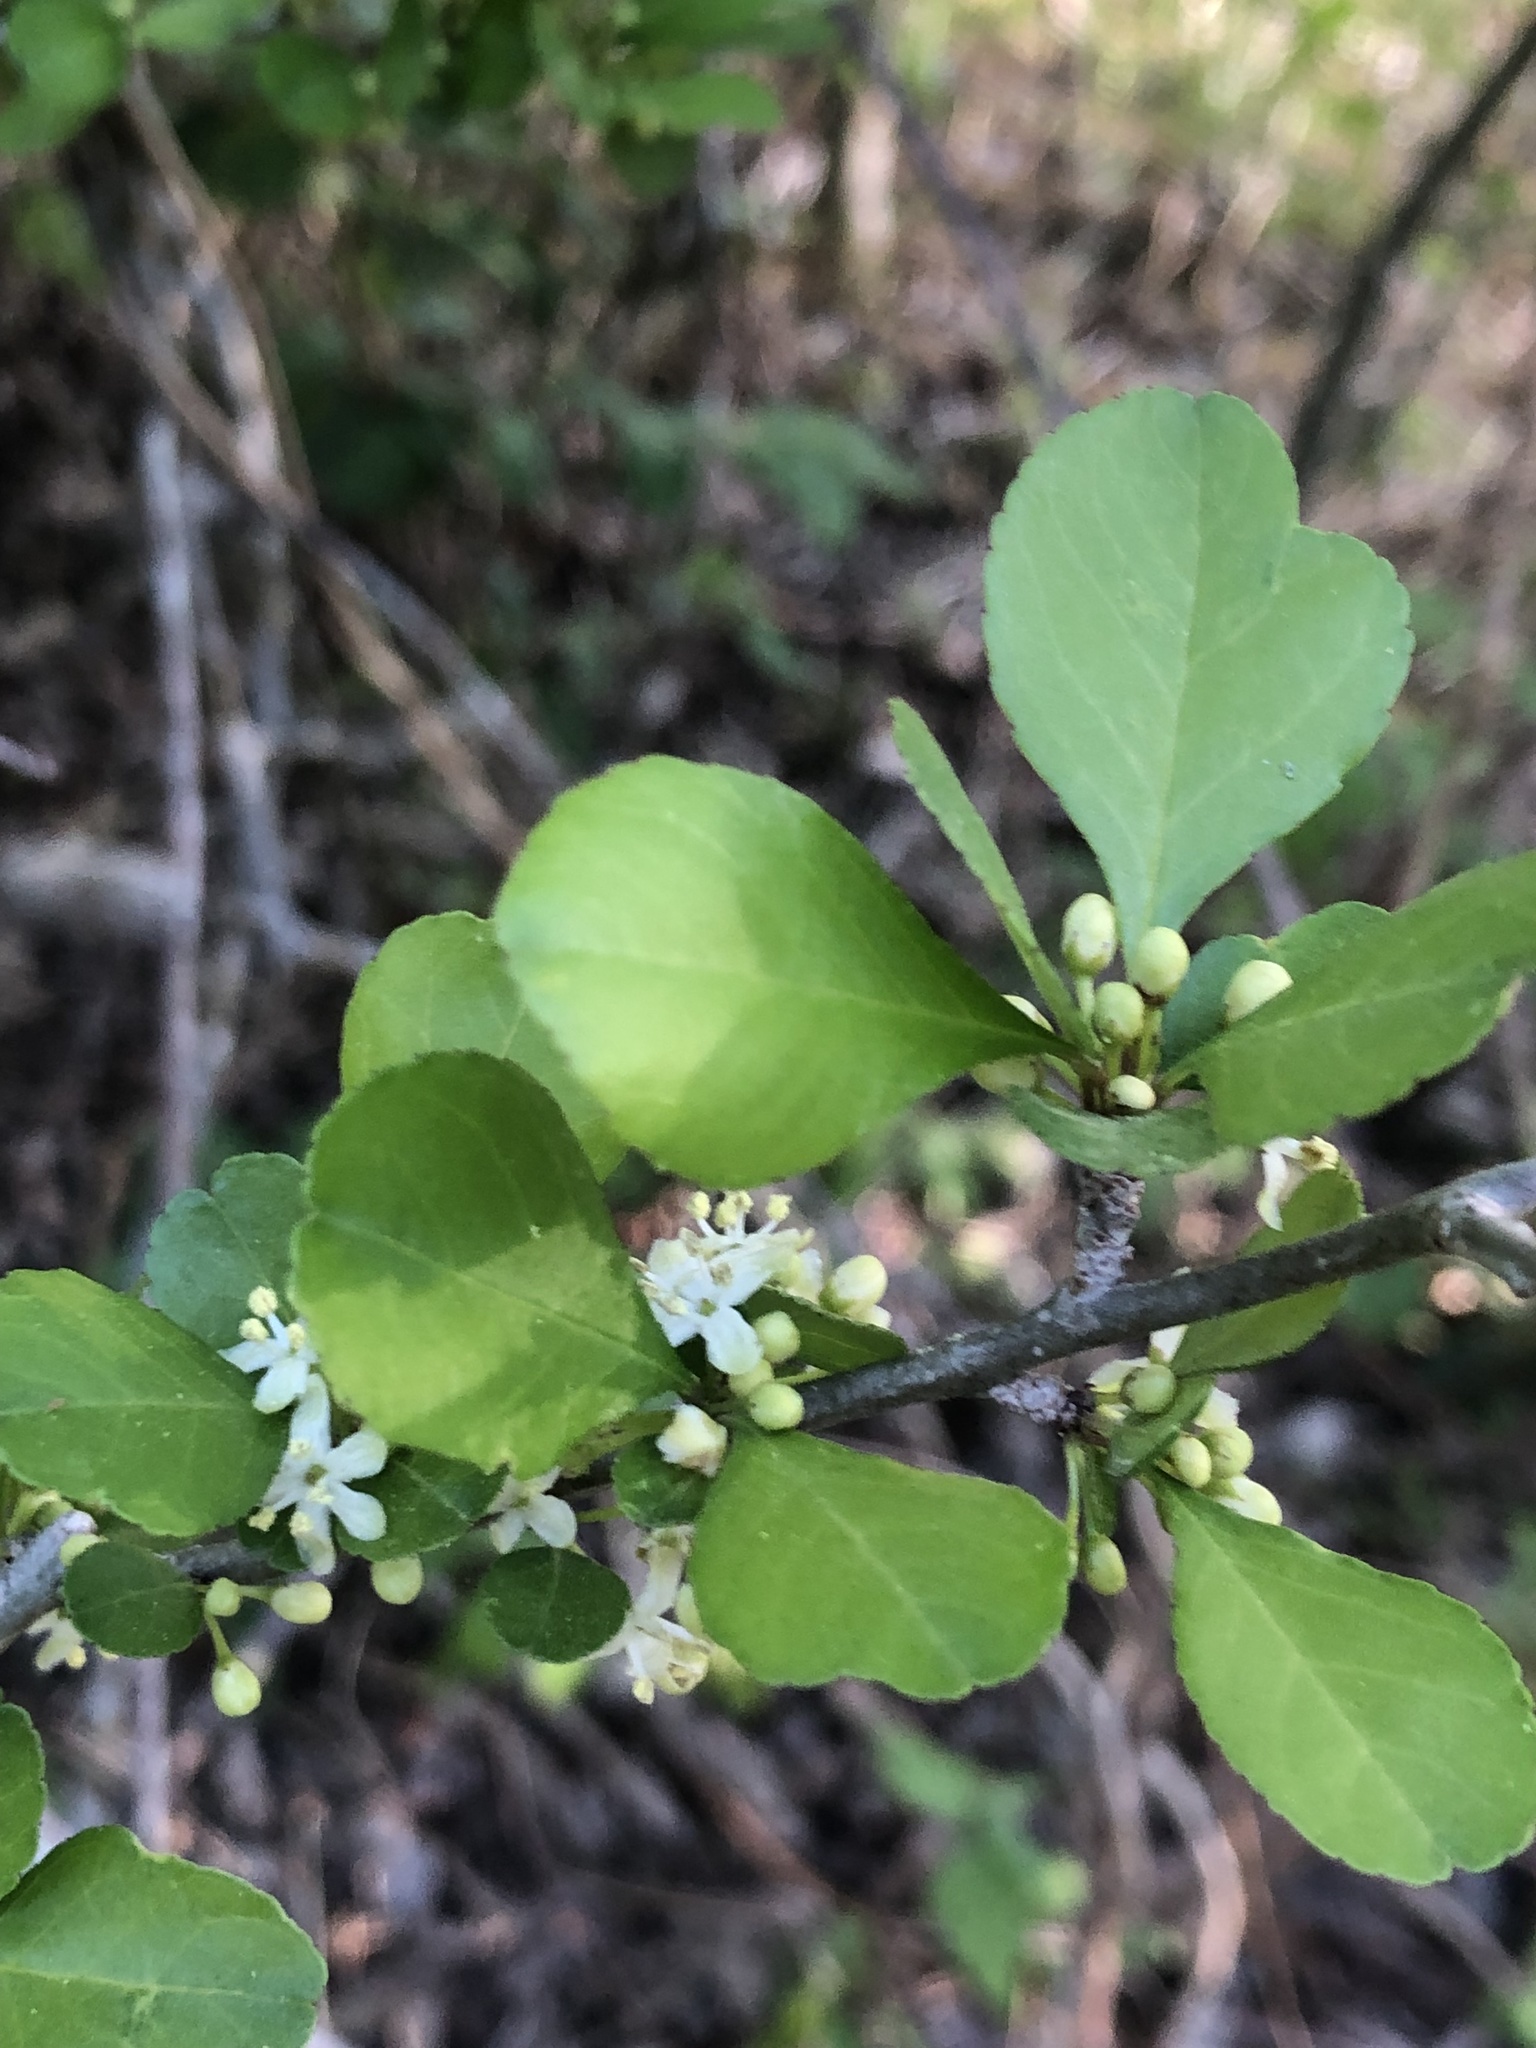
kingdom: Plantae
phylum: Tracheophyta
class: Magnoliopsida
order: Aquifoliales
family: Aquifoliaceae
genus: Ilex
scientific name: Ilex decidua
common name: Possum-haw
